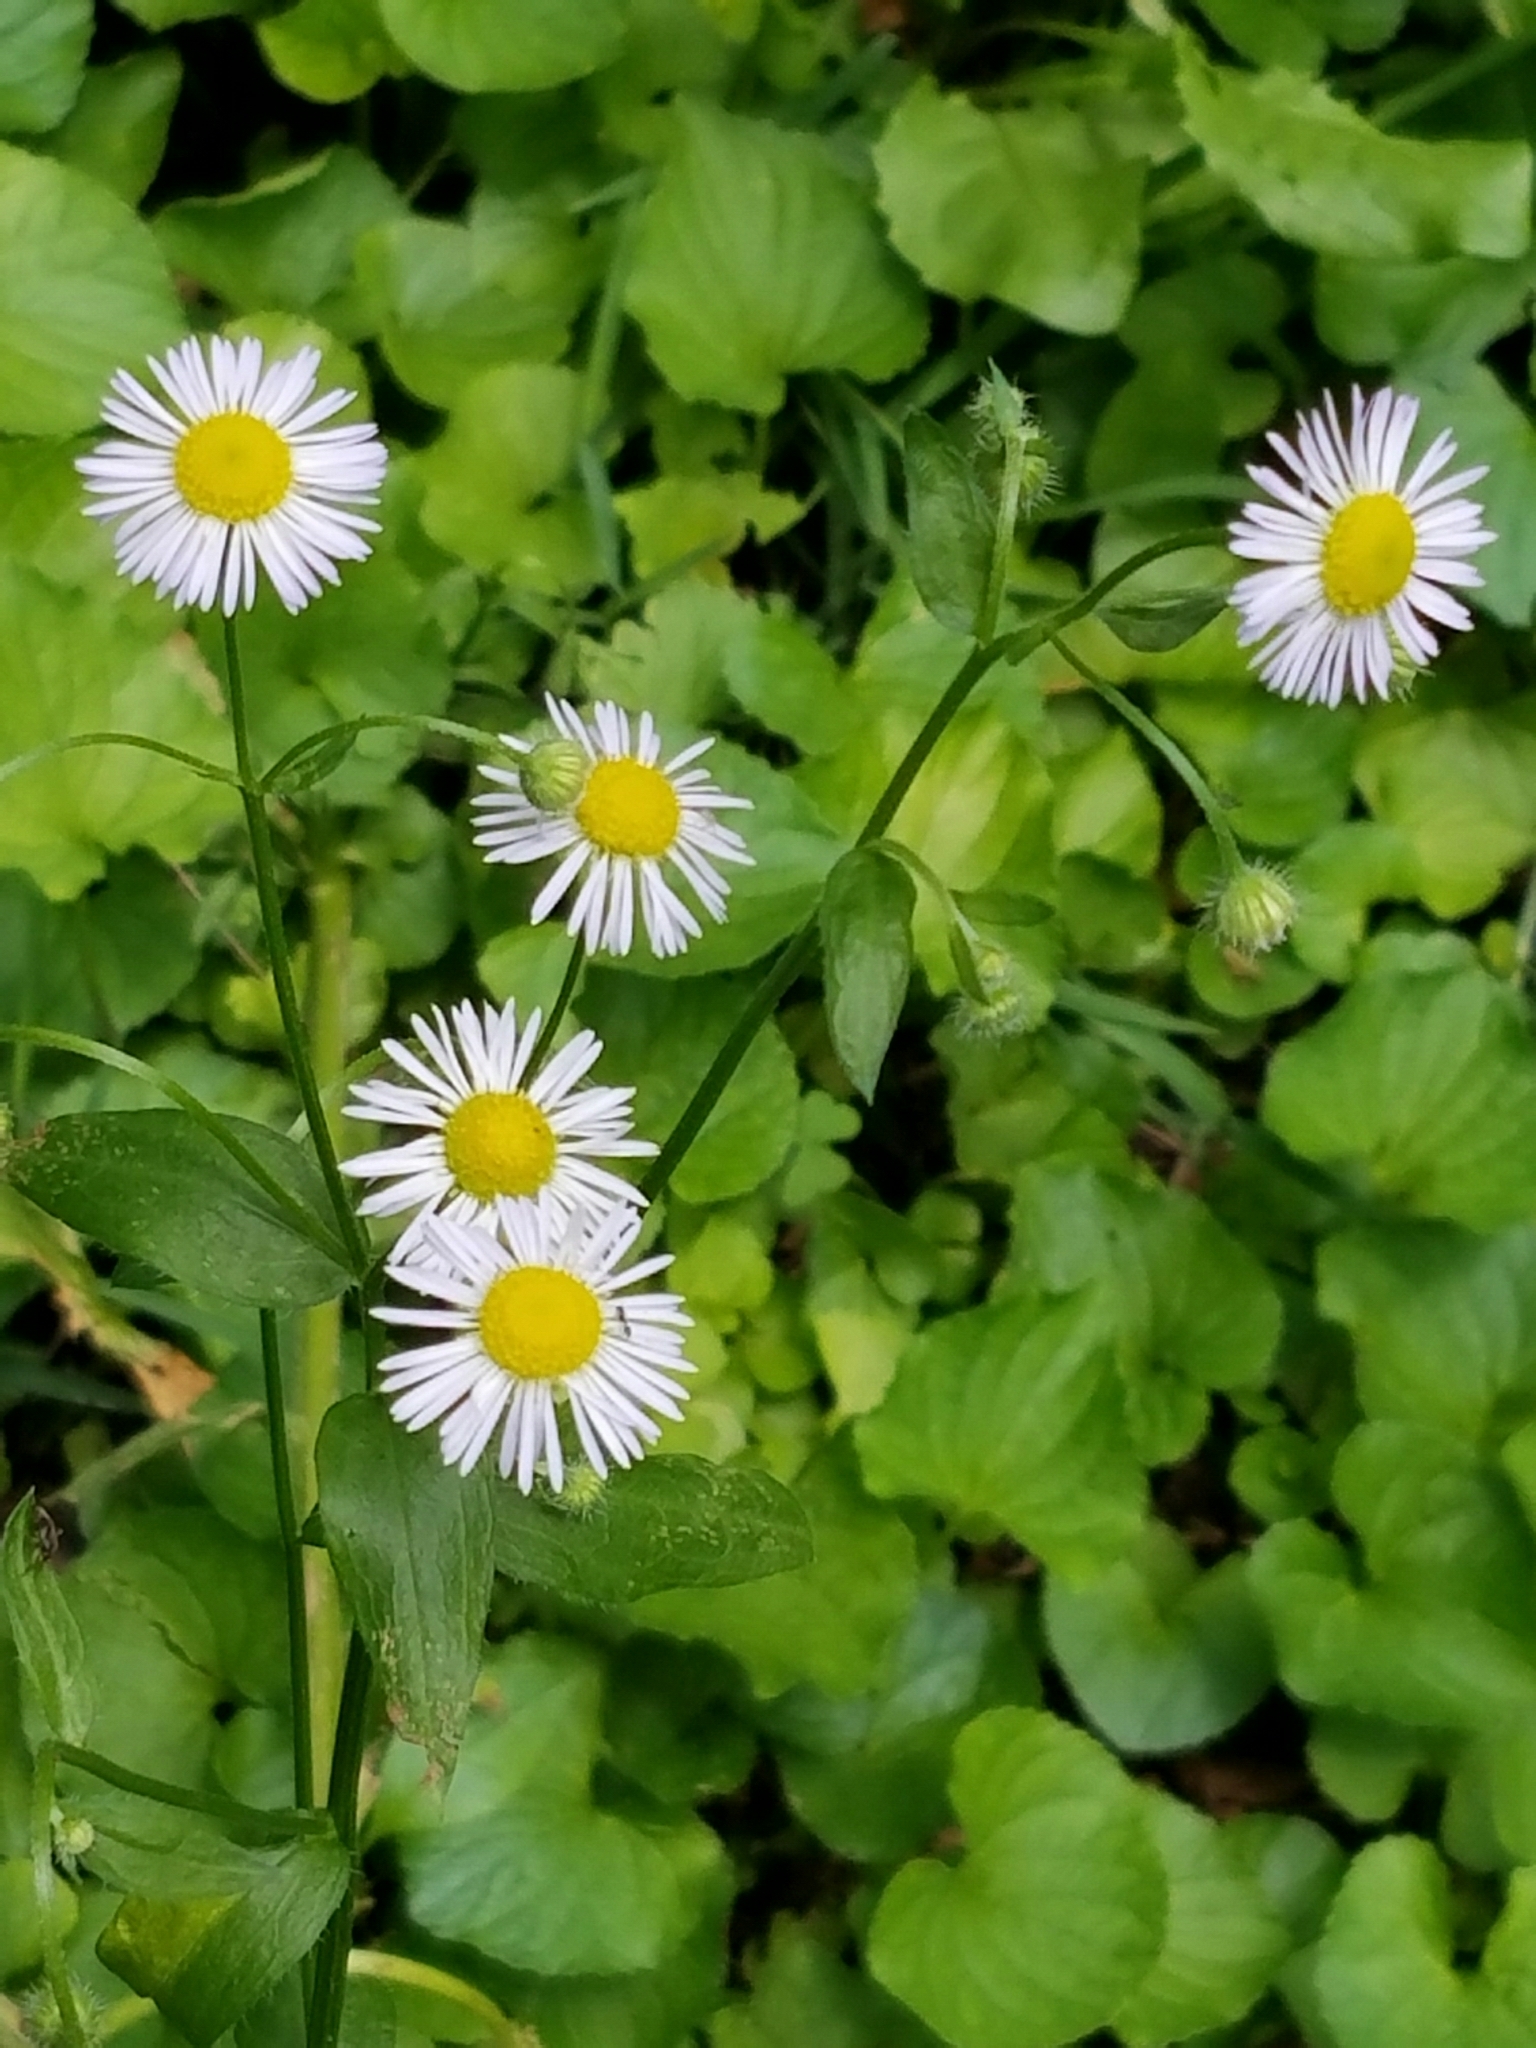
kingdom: Plantae
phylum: Tracheophyta
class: Magnoliopsida
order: Asterales
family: Asteraceae
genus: Erigeron
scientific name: Erigeron strigosus
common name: Common eastern fleabane
